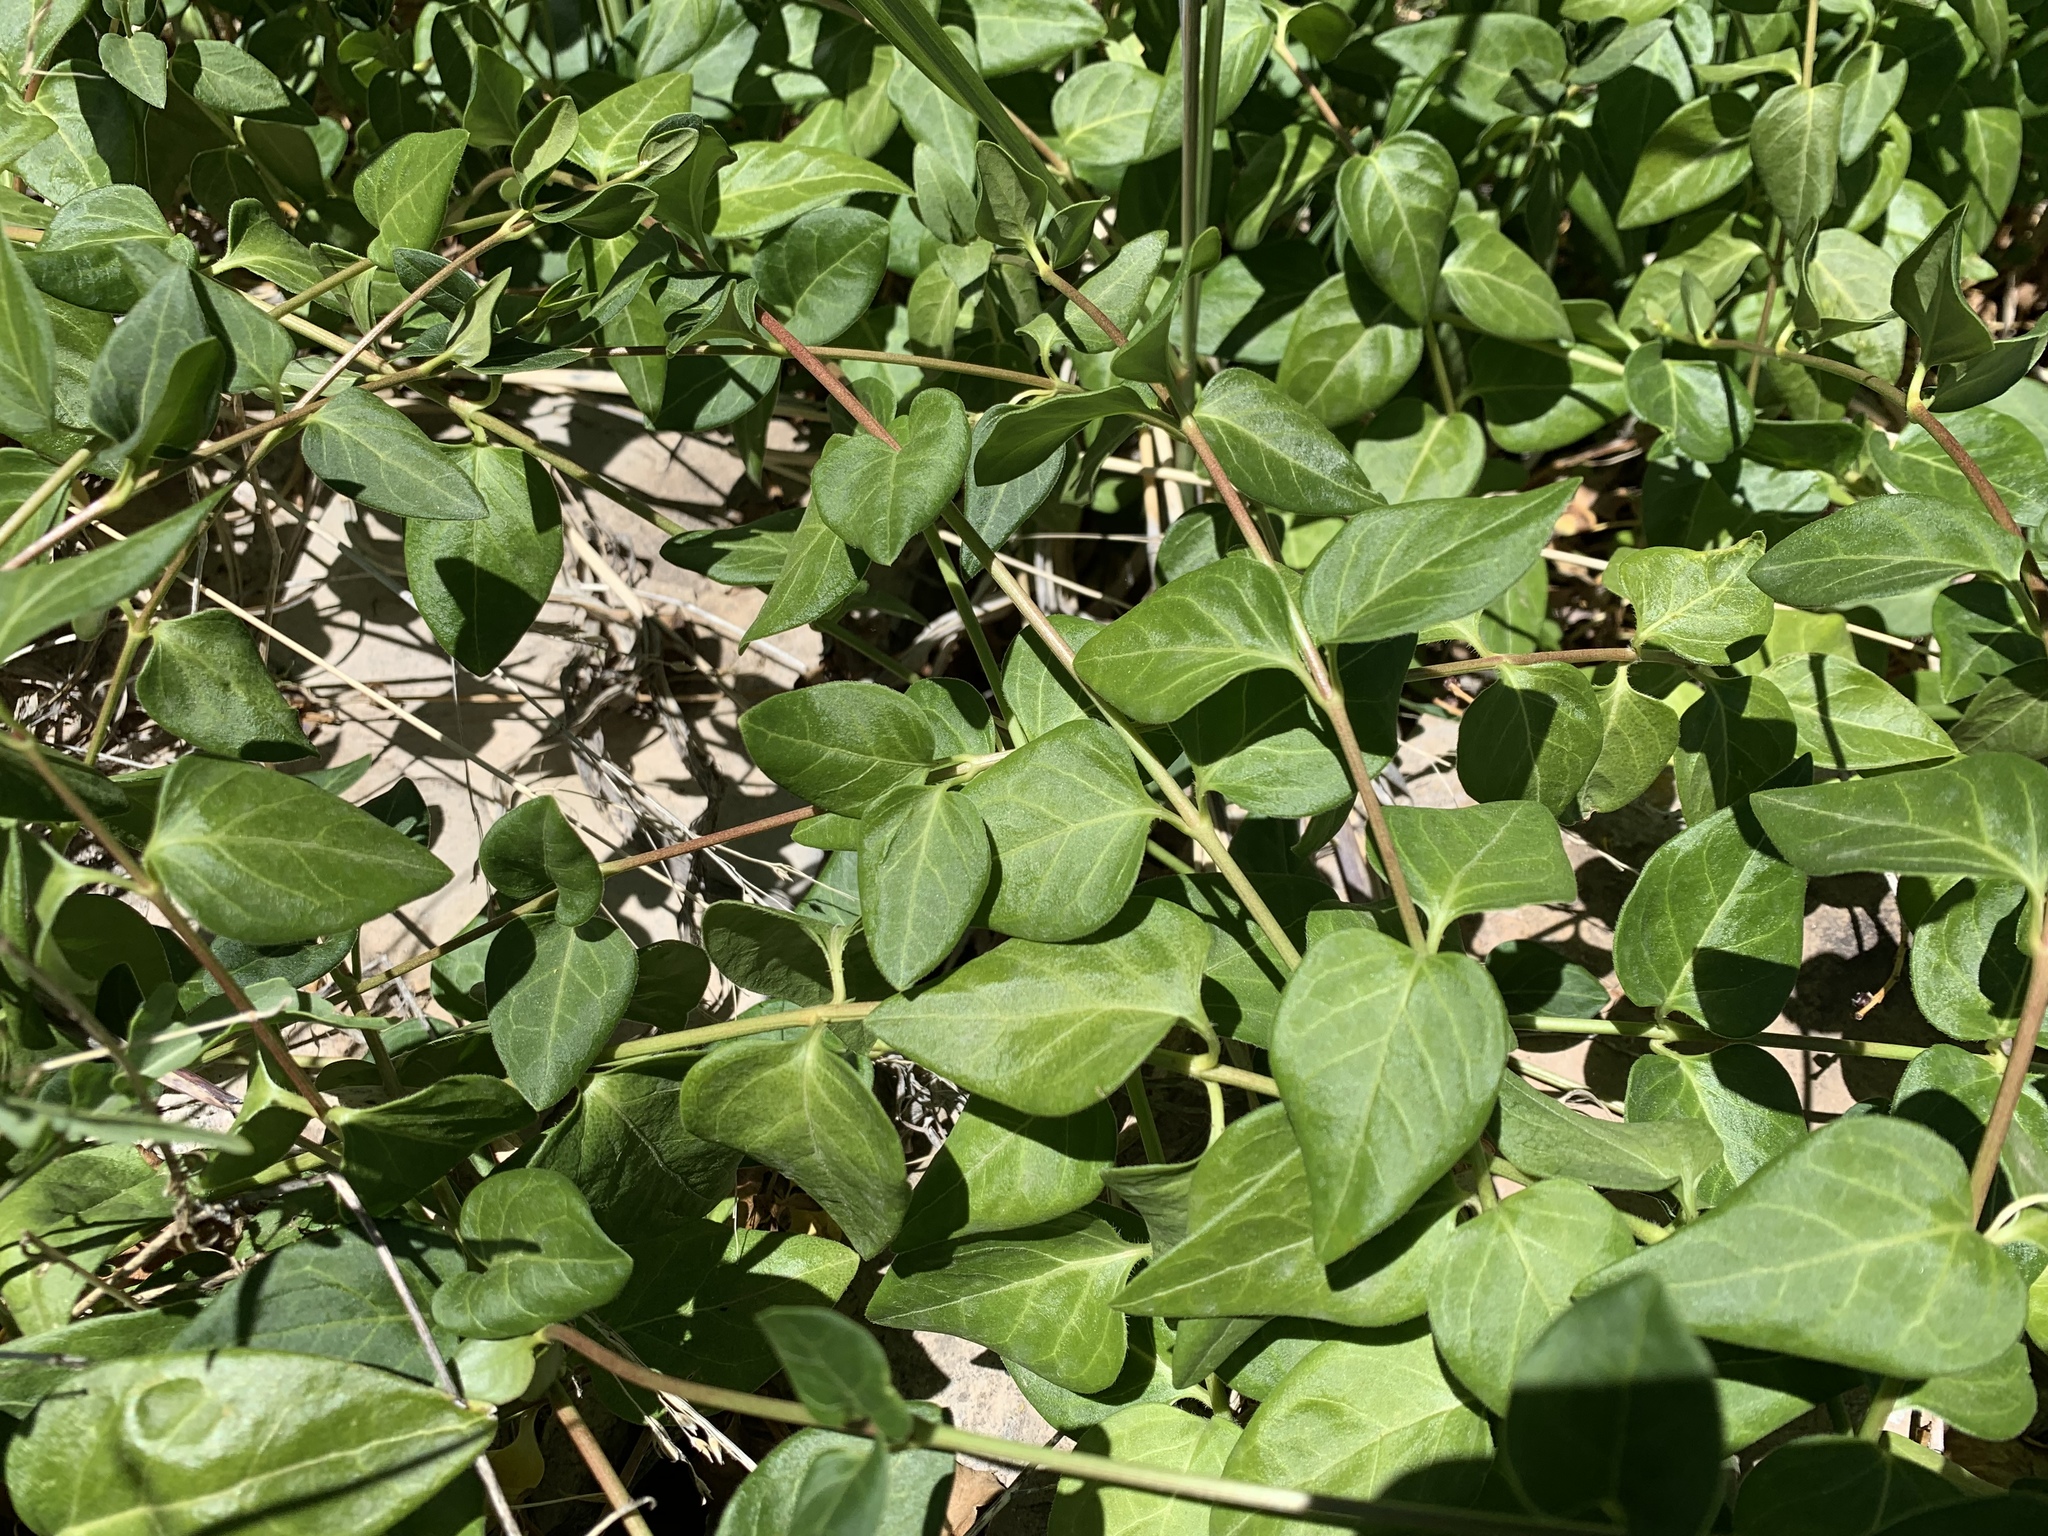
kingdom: Plantae
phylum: Tracheophyta
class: Magnoliopsida
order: Gentianales
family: Apocynaceae
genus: Vinca
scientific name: Vinca major
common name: Greater periwinkle
